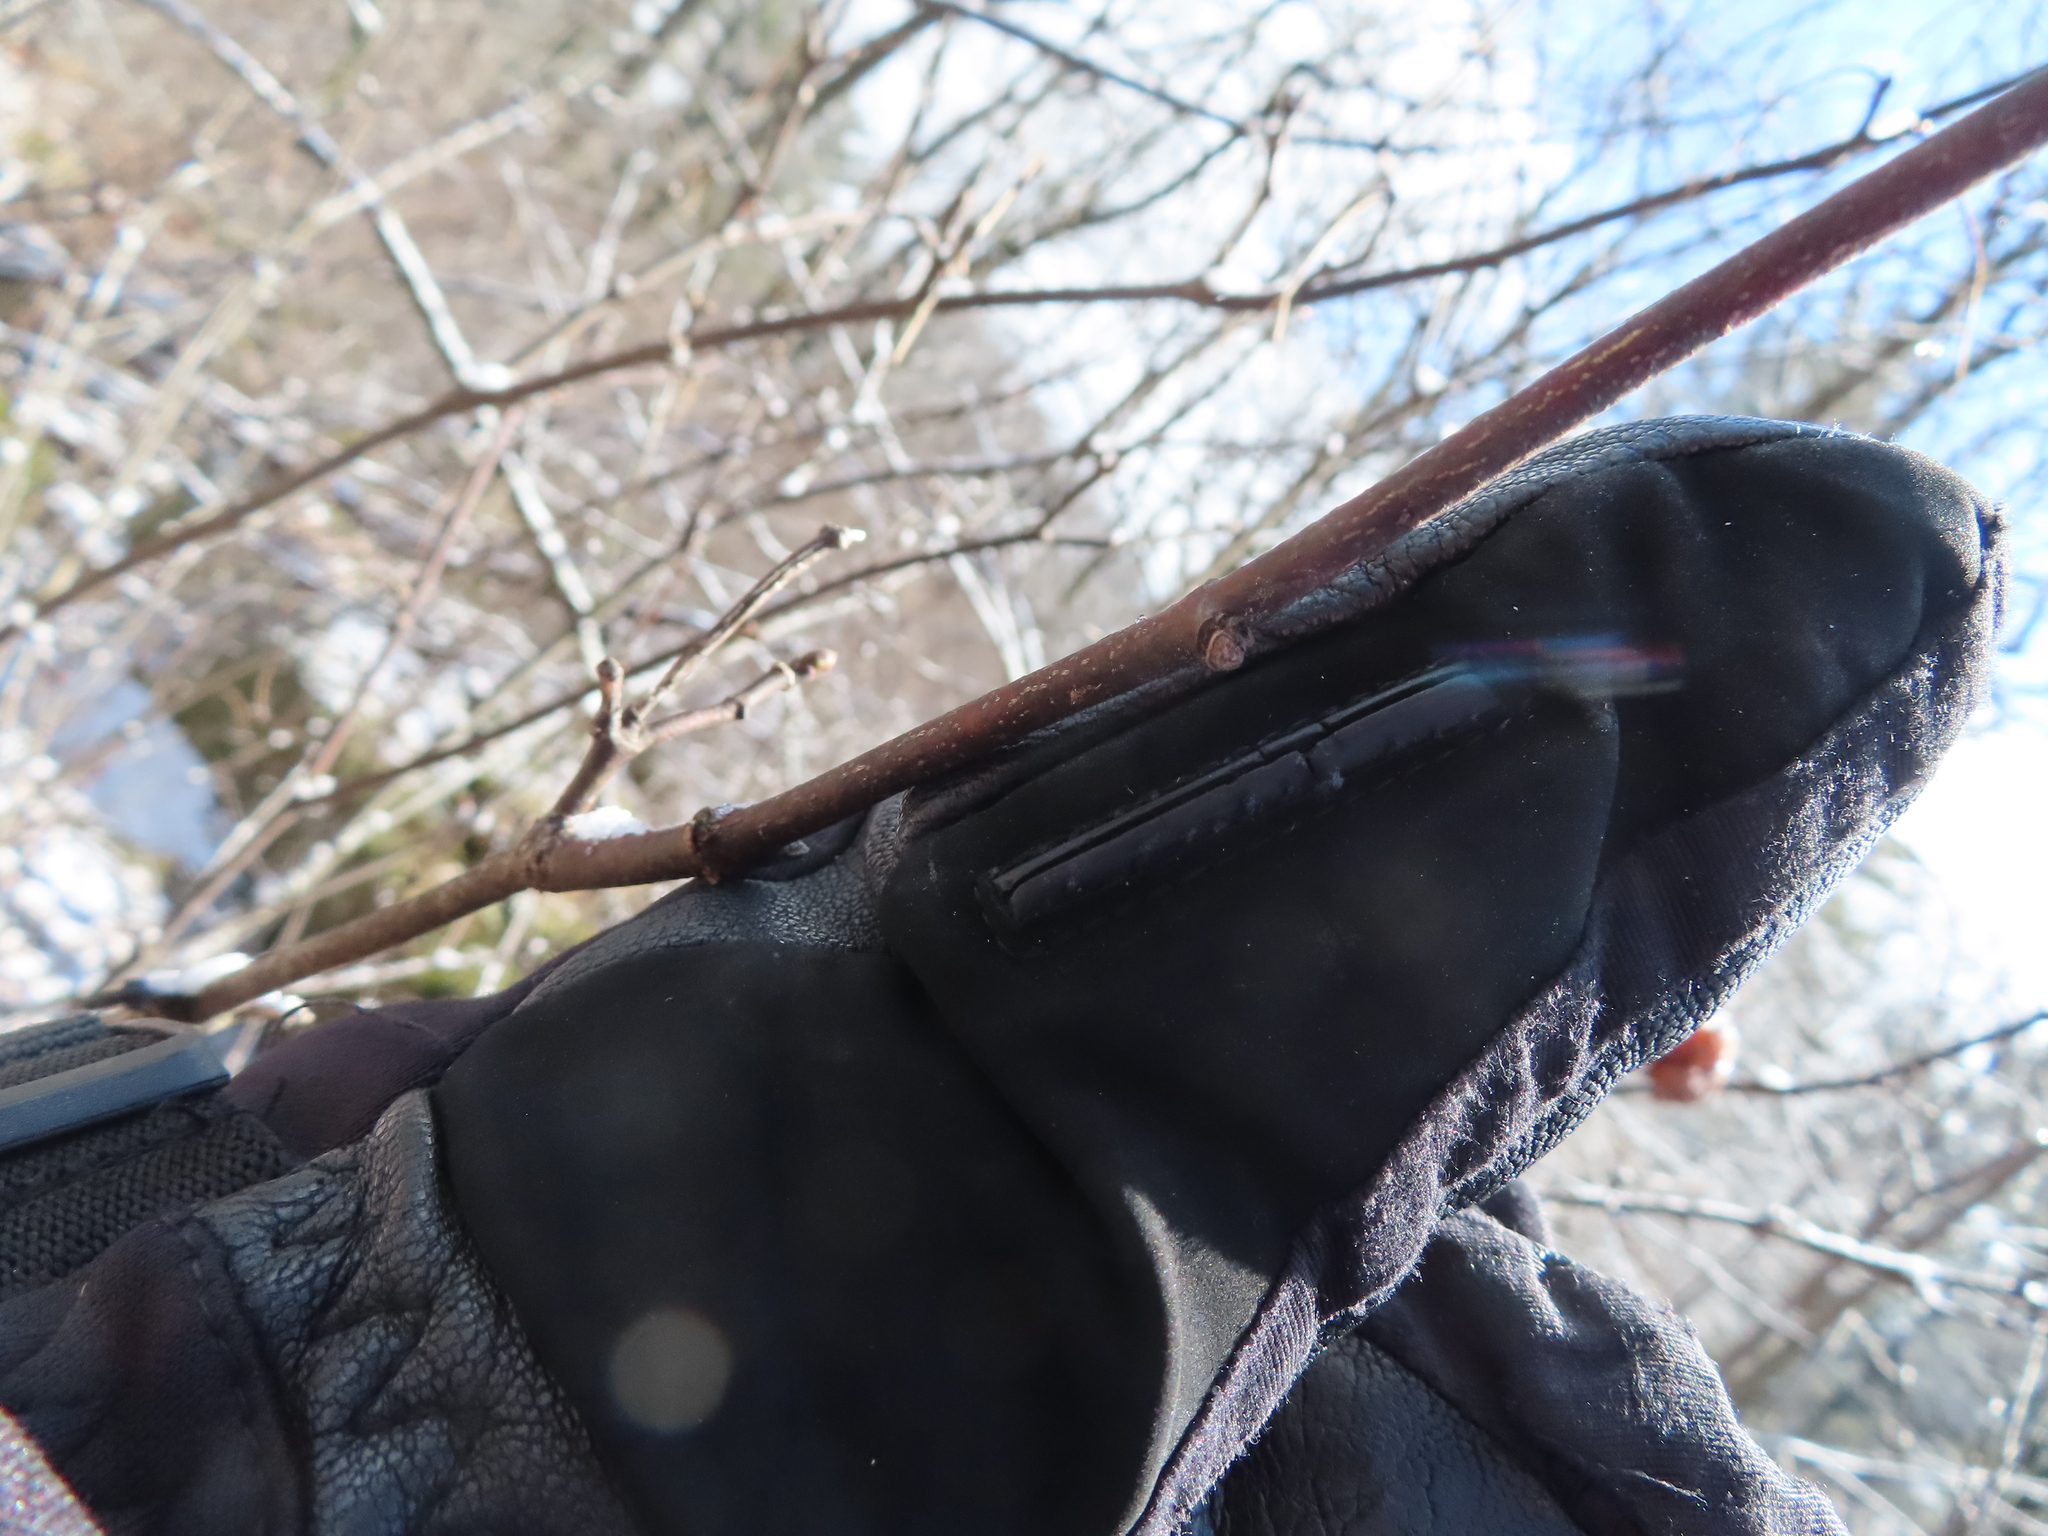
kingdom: Plantae
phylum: Tracheophyta
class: Magnoliopsida
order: Crossosomatales
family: Staphyleaceae
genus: Staphylea
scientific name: Staphylea trifolia
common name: American bladdernut
